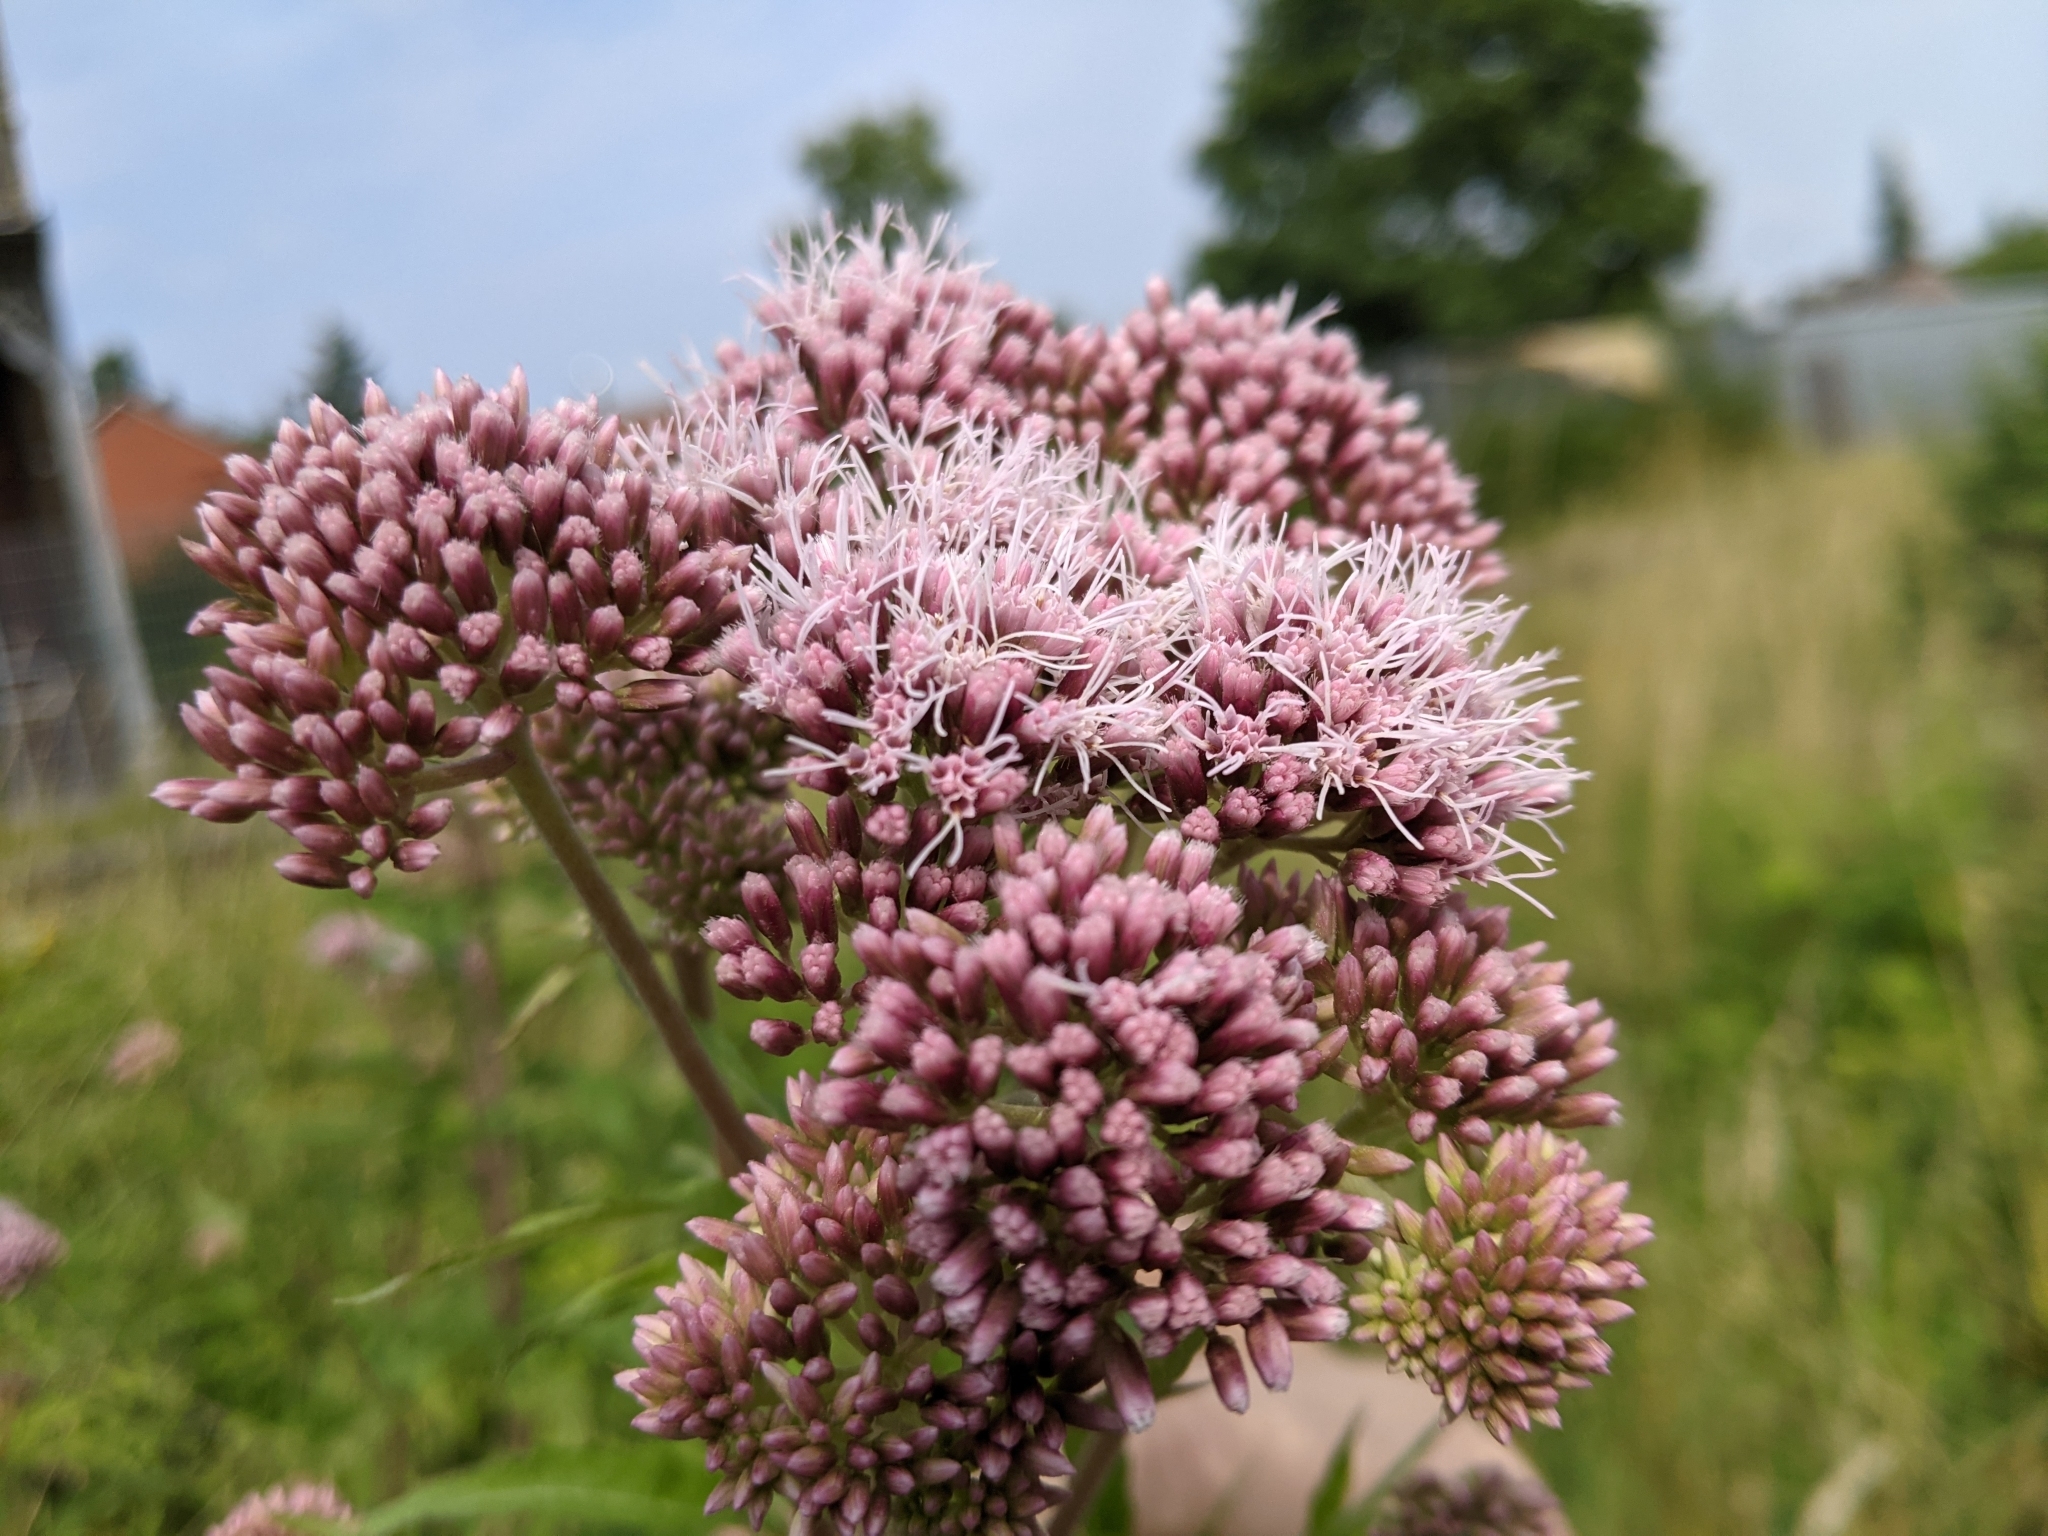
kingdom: Plantae
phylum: Tracheophyta
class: Magnoliopsida
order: Asterales
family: Asteraceae
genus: Eupatorium
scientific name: Eupatorium cannabinum
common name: Hemp-agrimony
